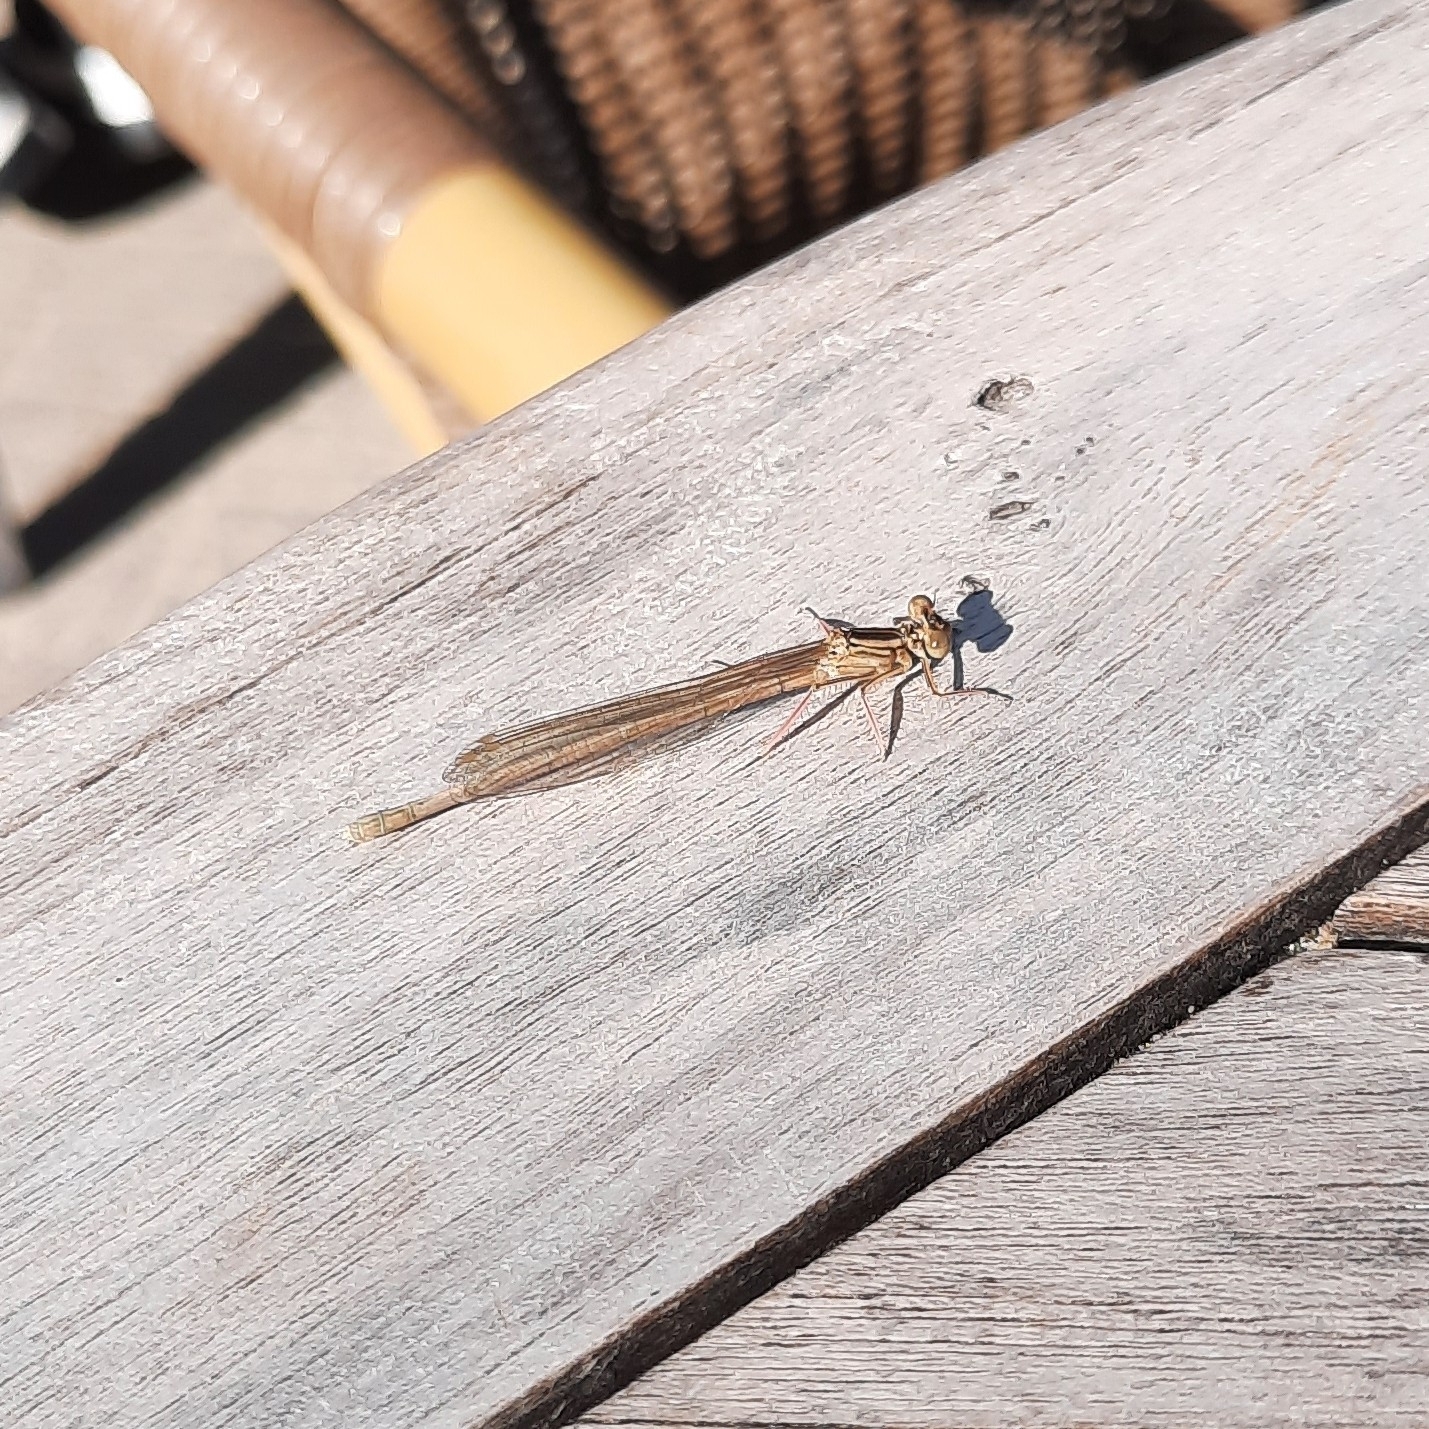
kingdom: Animalia
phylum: Arthropoda
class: Insecta
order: Odonata
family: Platycnemididae
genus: Platycnemis
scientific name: Platycnemis pennipes
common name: White-legged damselfly
